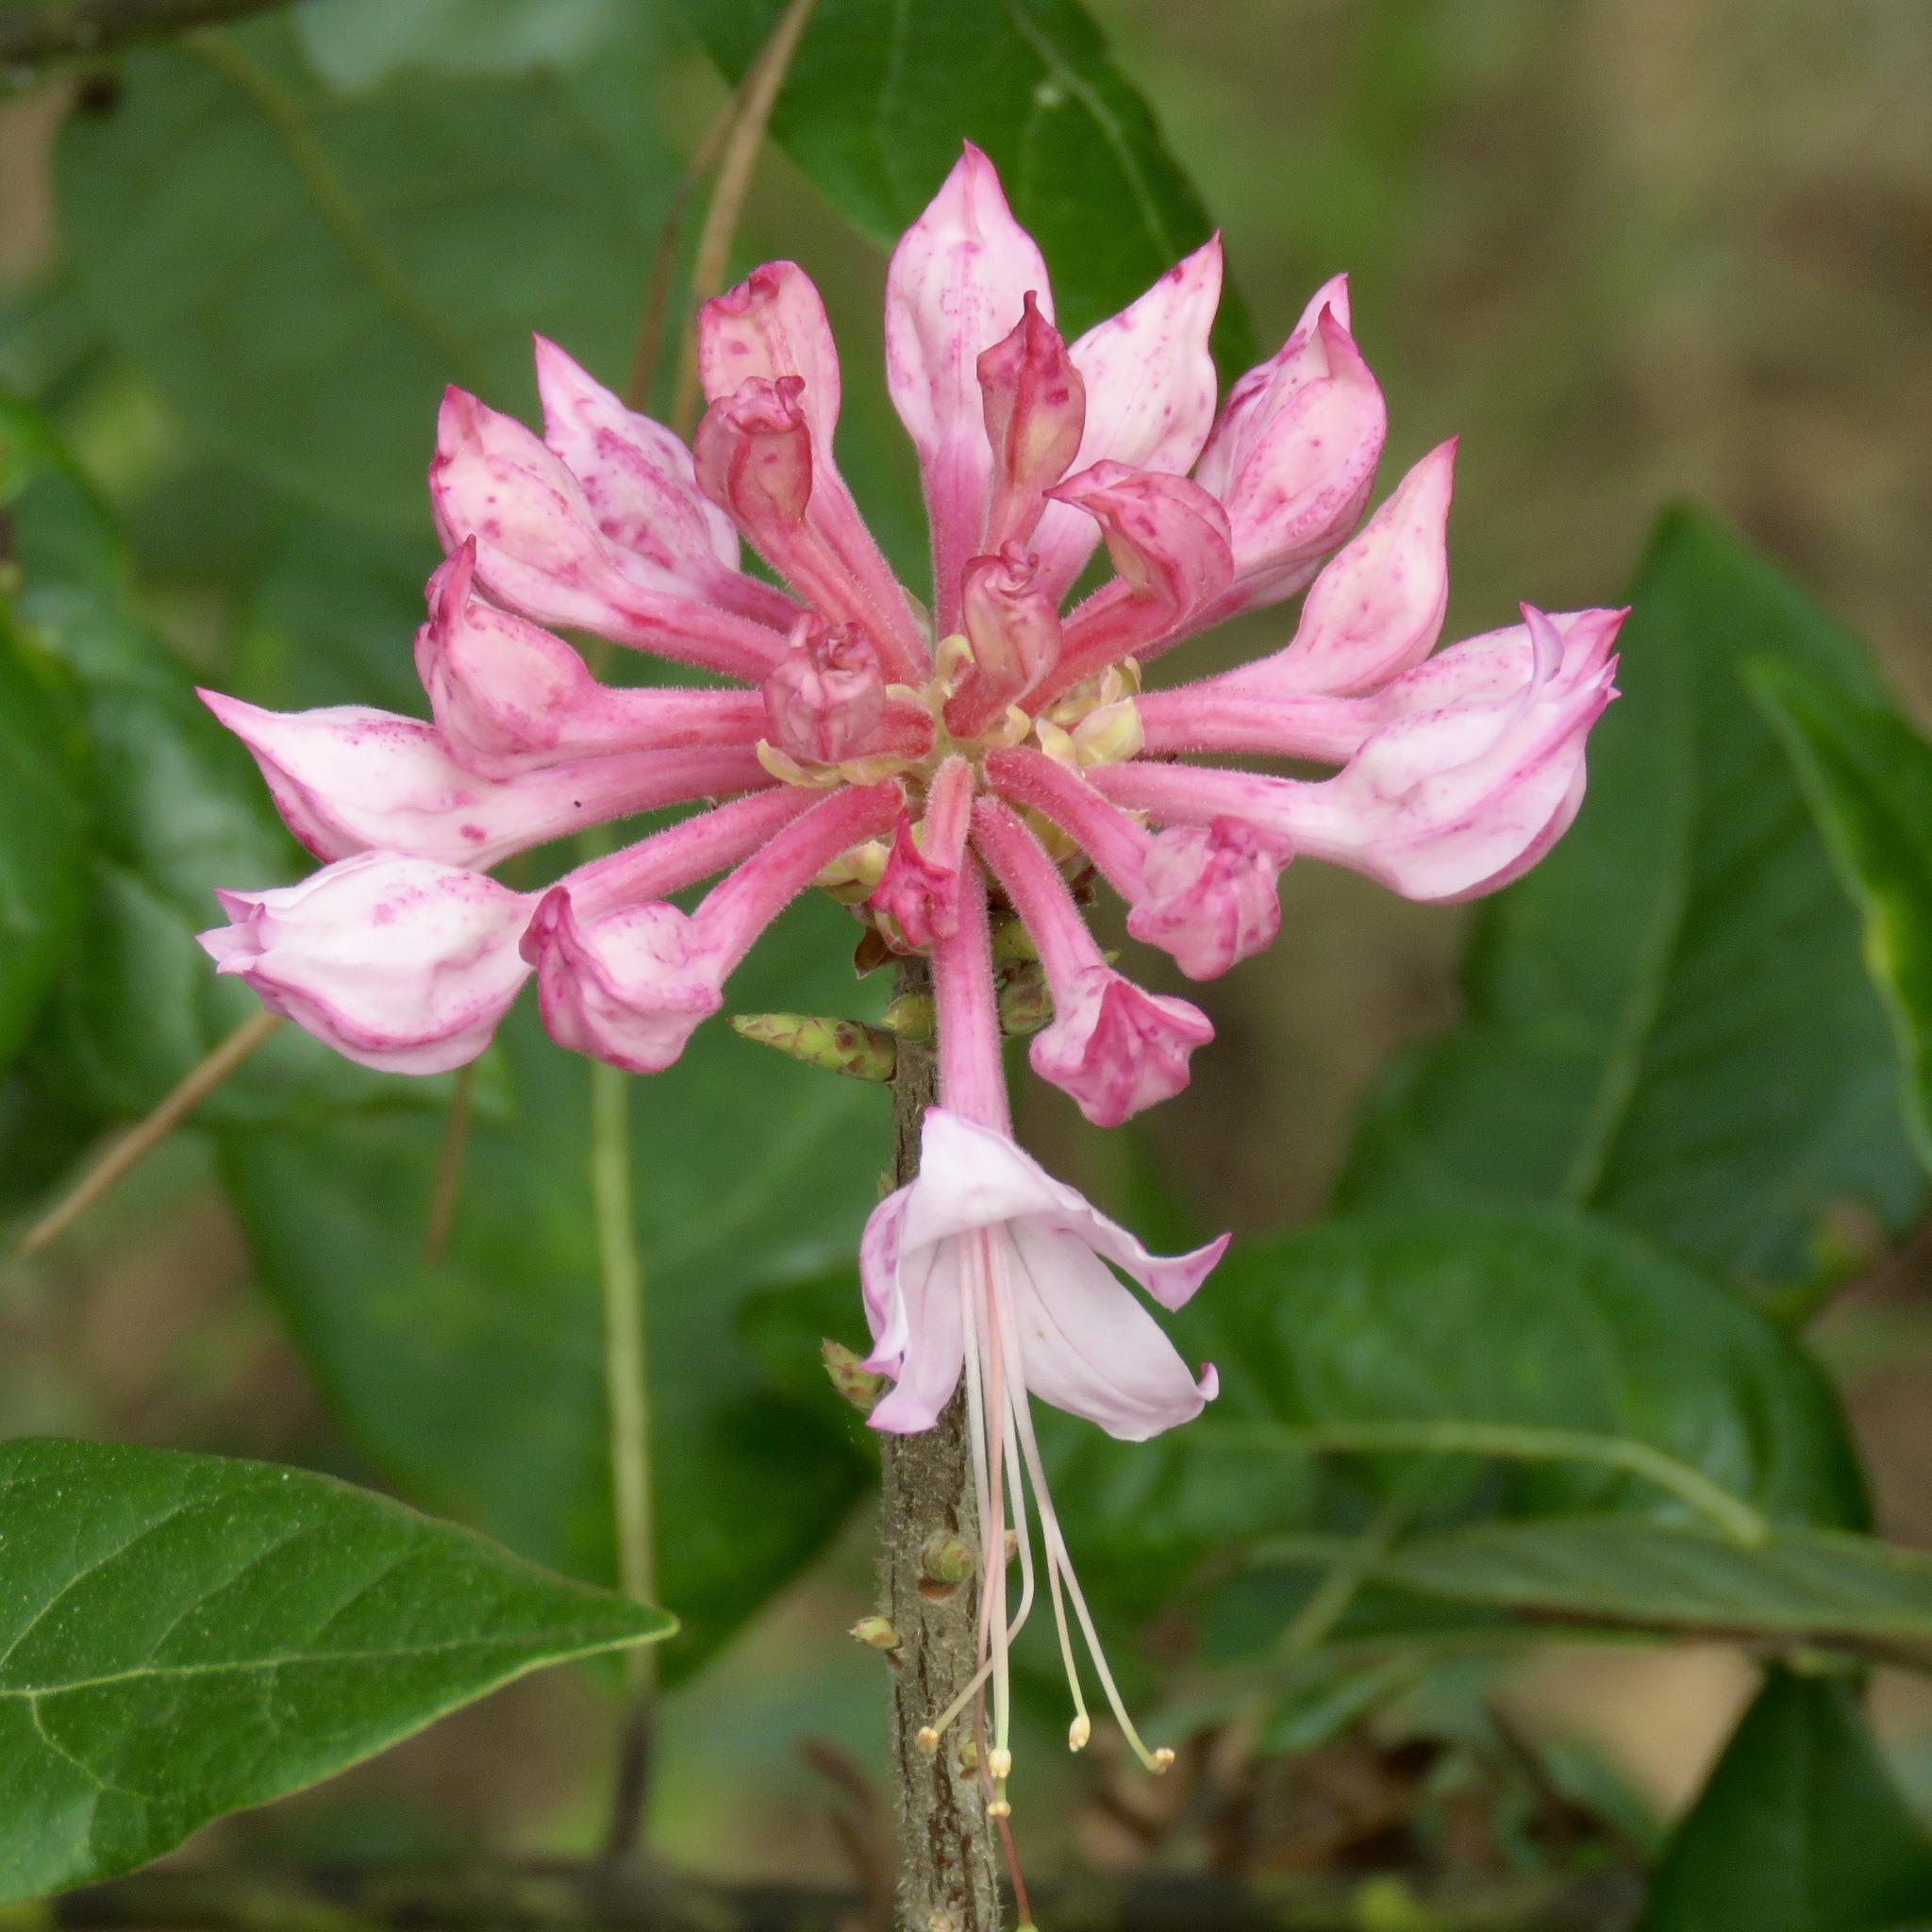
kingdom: Plantae
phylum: Tracheophyta
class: Magnoliopsida
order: Ericales
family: Ericaceae
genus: Rhododendron
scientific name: Rhododendron canescens
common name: Mountain azalea
